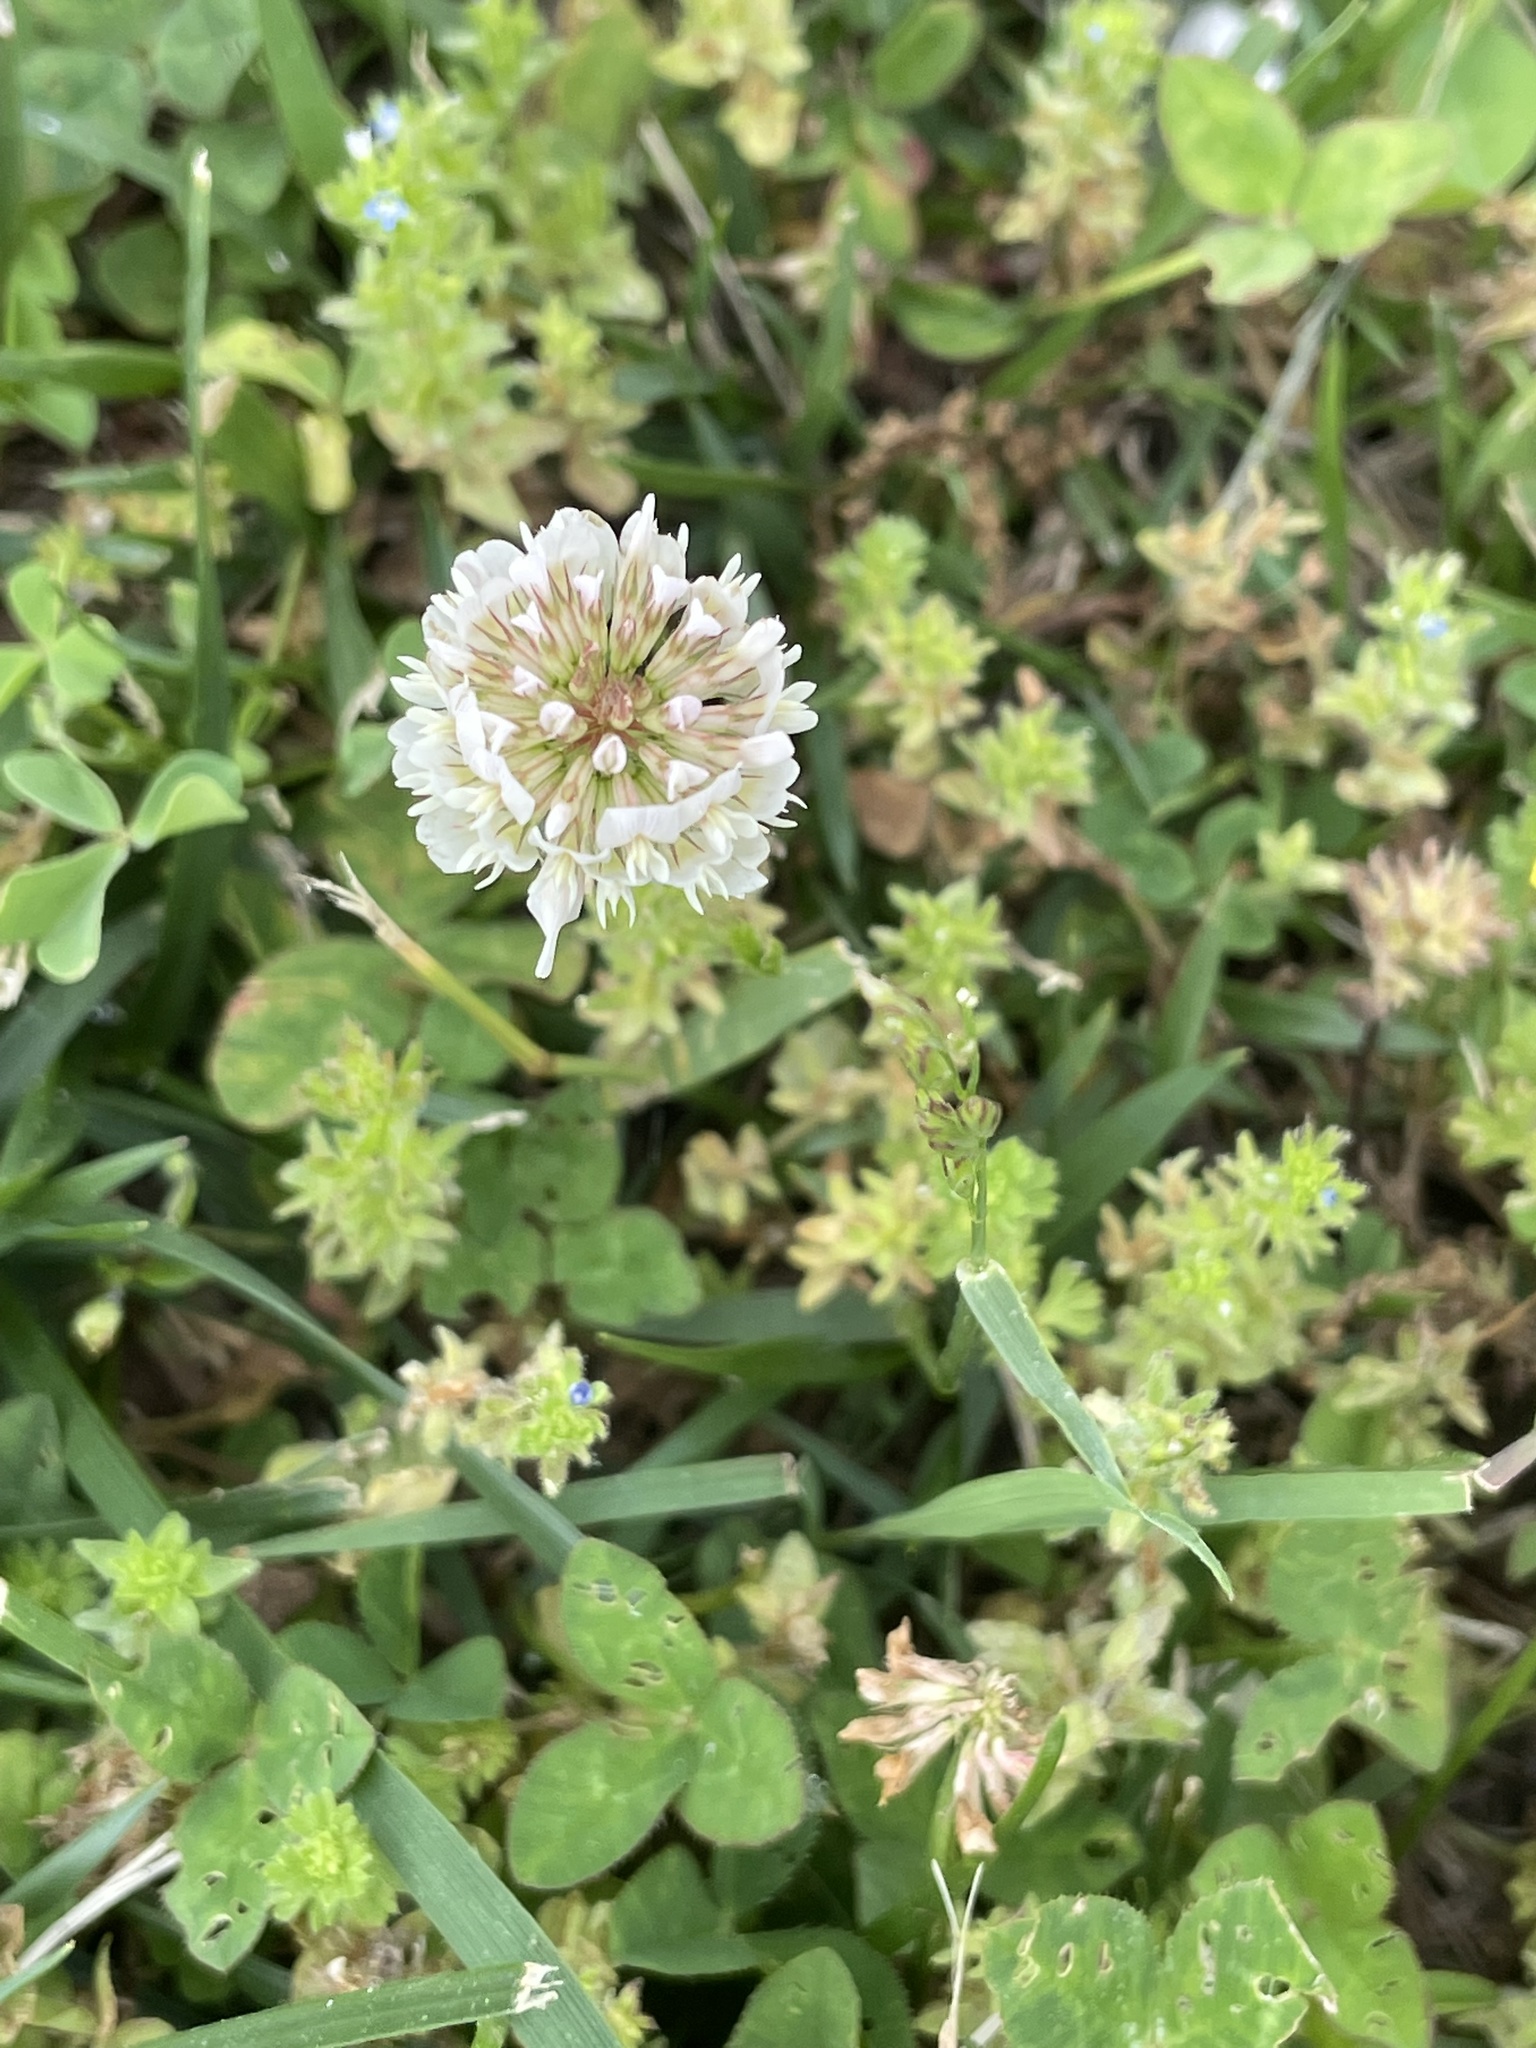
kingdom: Plantae
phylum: Tracheophyta
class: Magnoliopsida
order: Fabales
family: Fabaceae
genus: Trifolium
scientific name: Trifolium repens
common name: White clover
